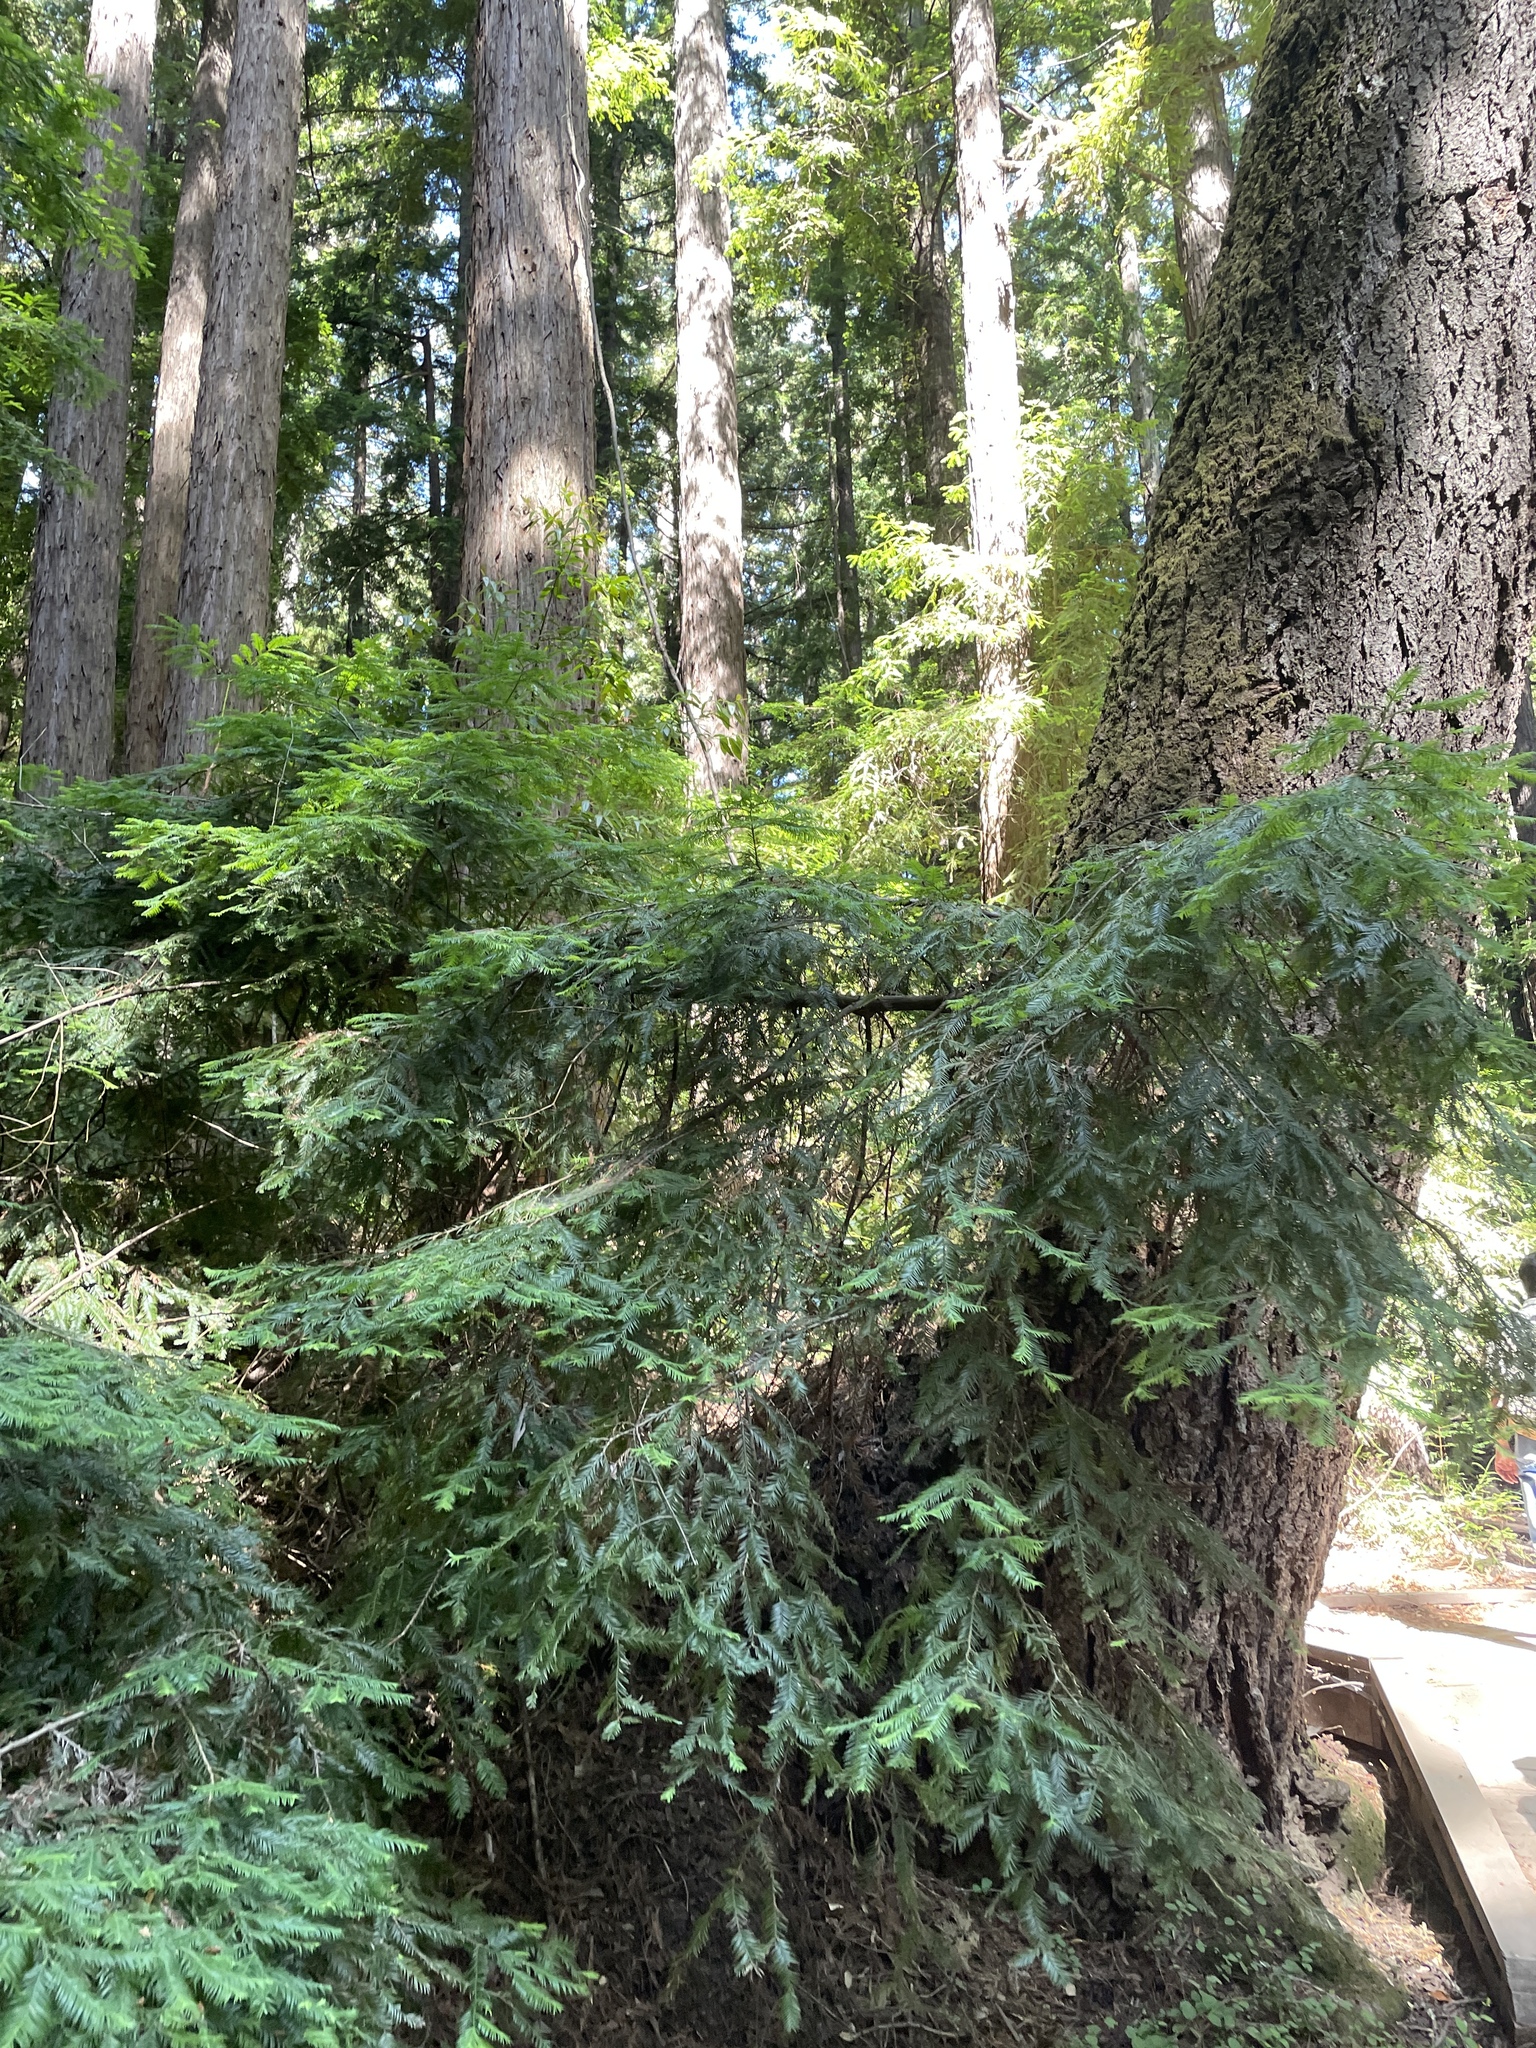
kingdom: Plantae
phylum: Tracheophyta
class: Pinopsida
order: Pinales
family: Cupressaceae
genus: Sequoia
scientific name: Sequoia sempervirens
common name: Coast redwood
